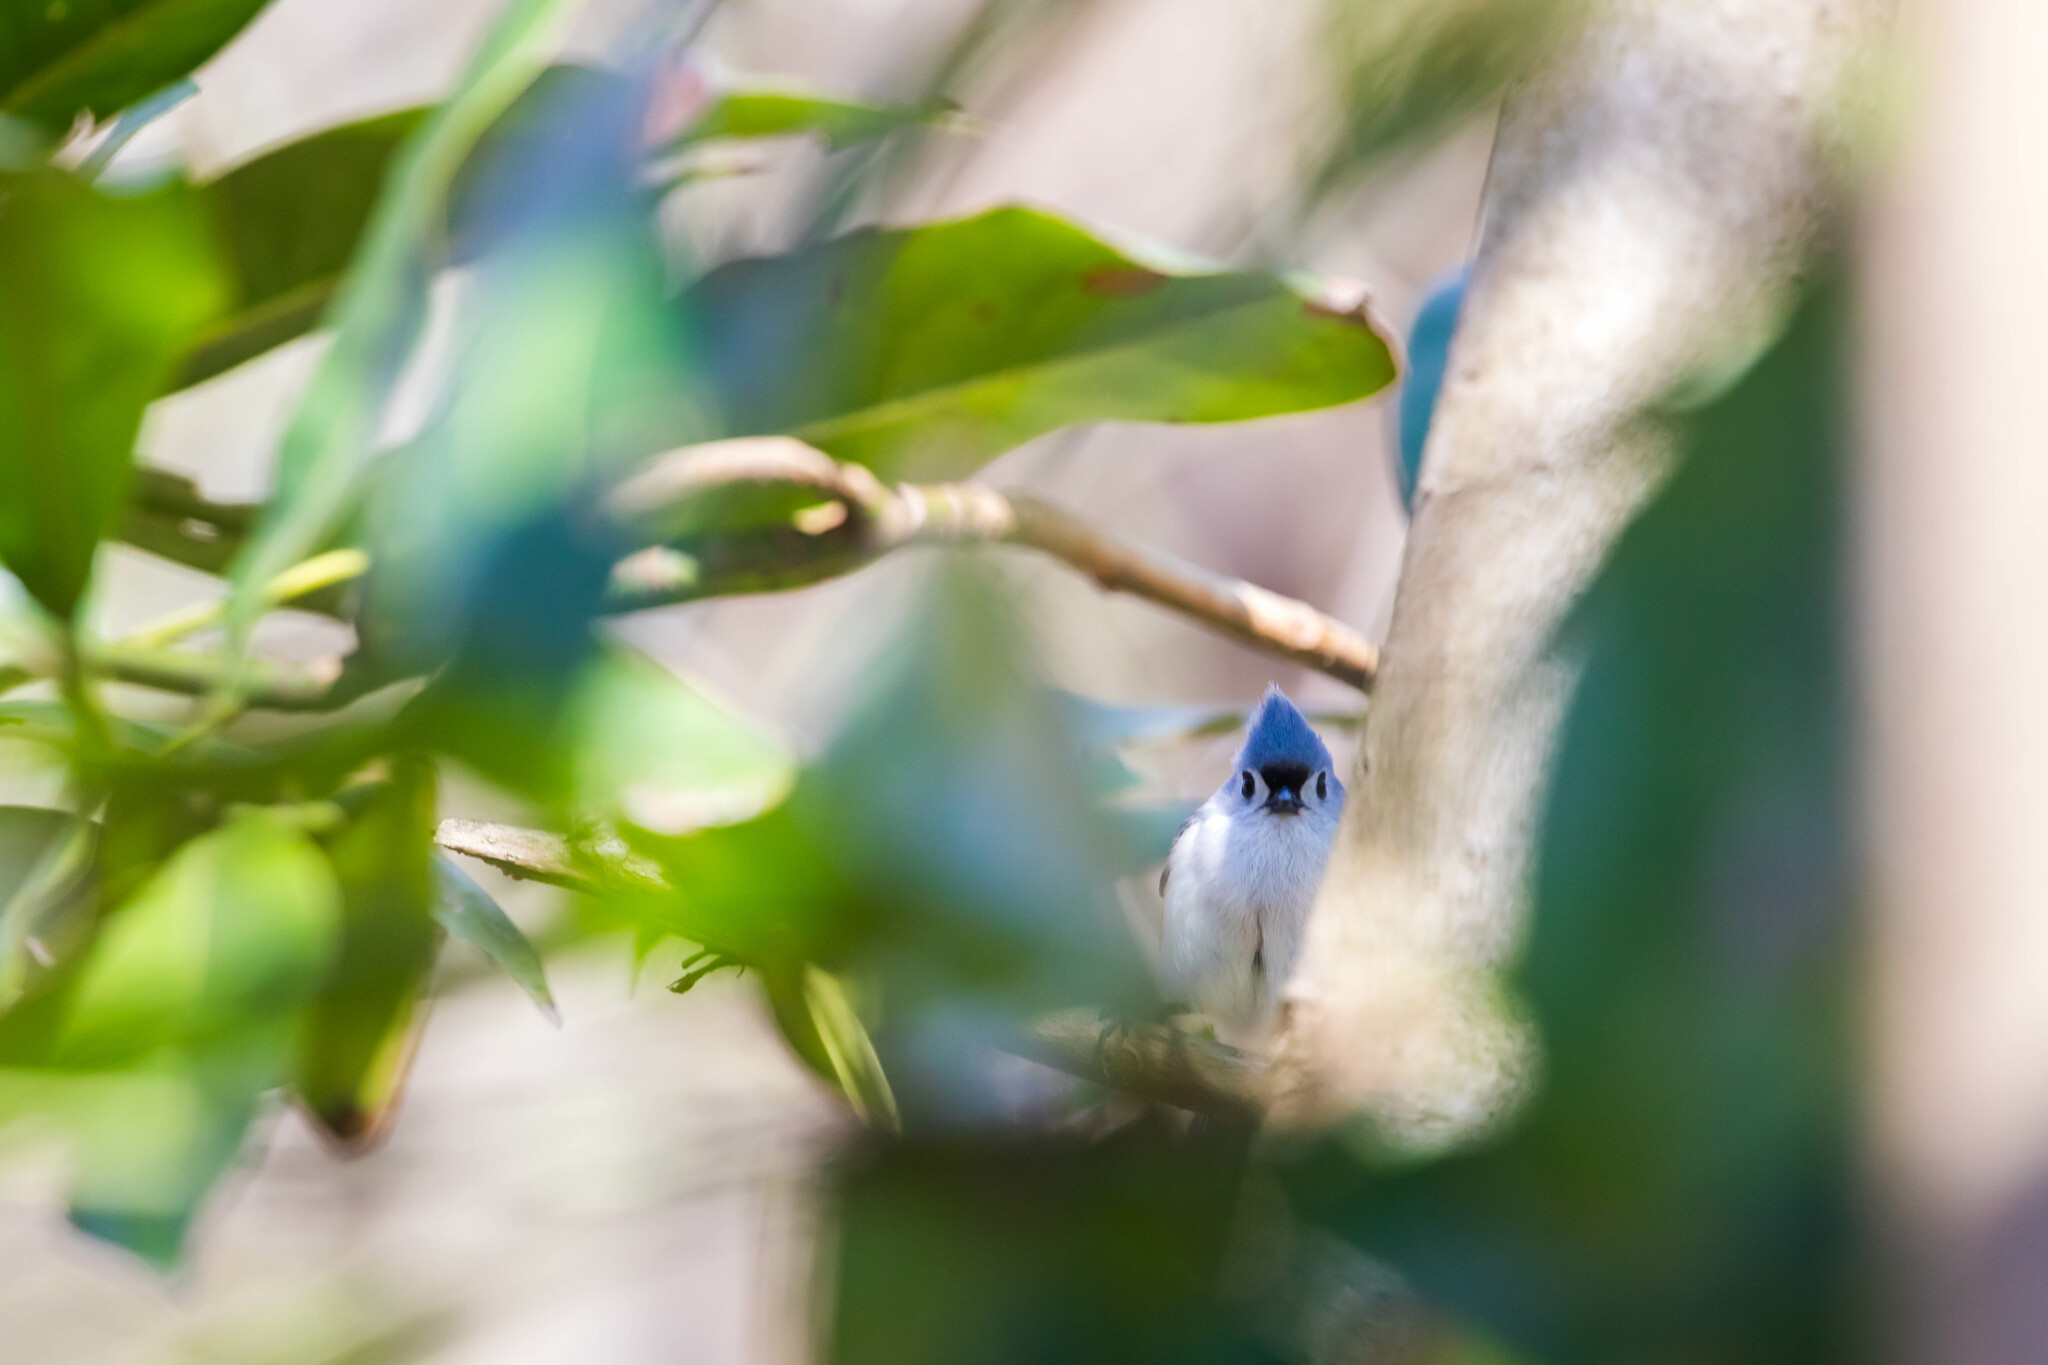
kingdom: Animalia
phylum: Chordata
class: Aves
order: Passeriformes
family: Paridae
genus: Baeolophus
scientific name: Baeolophus bicolor
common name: Tufted titmouse
